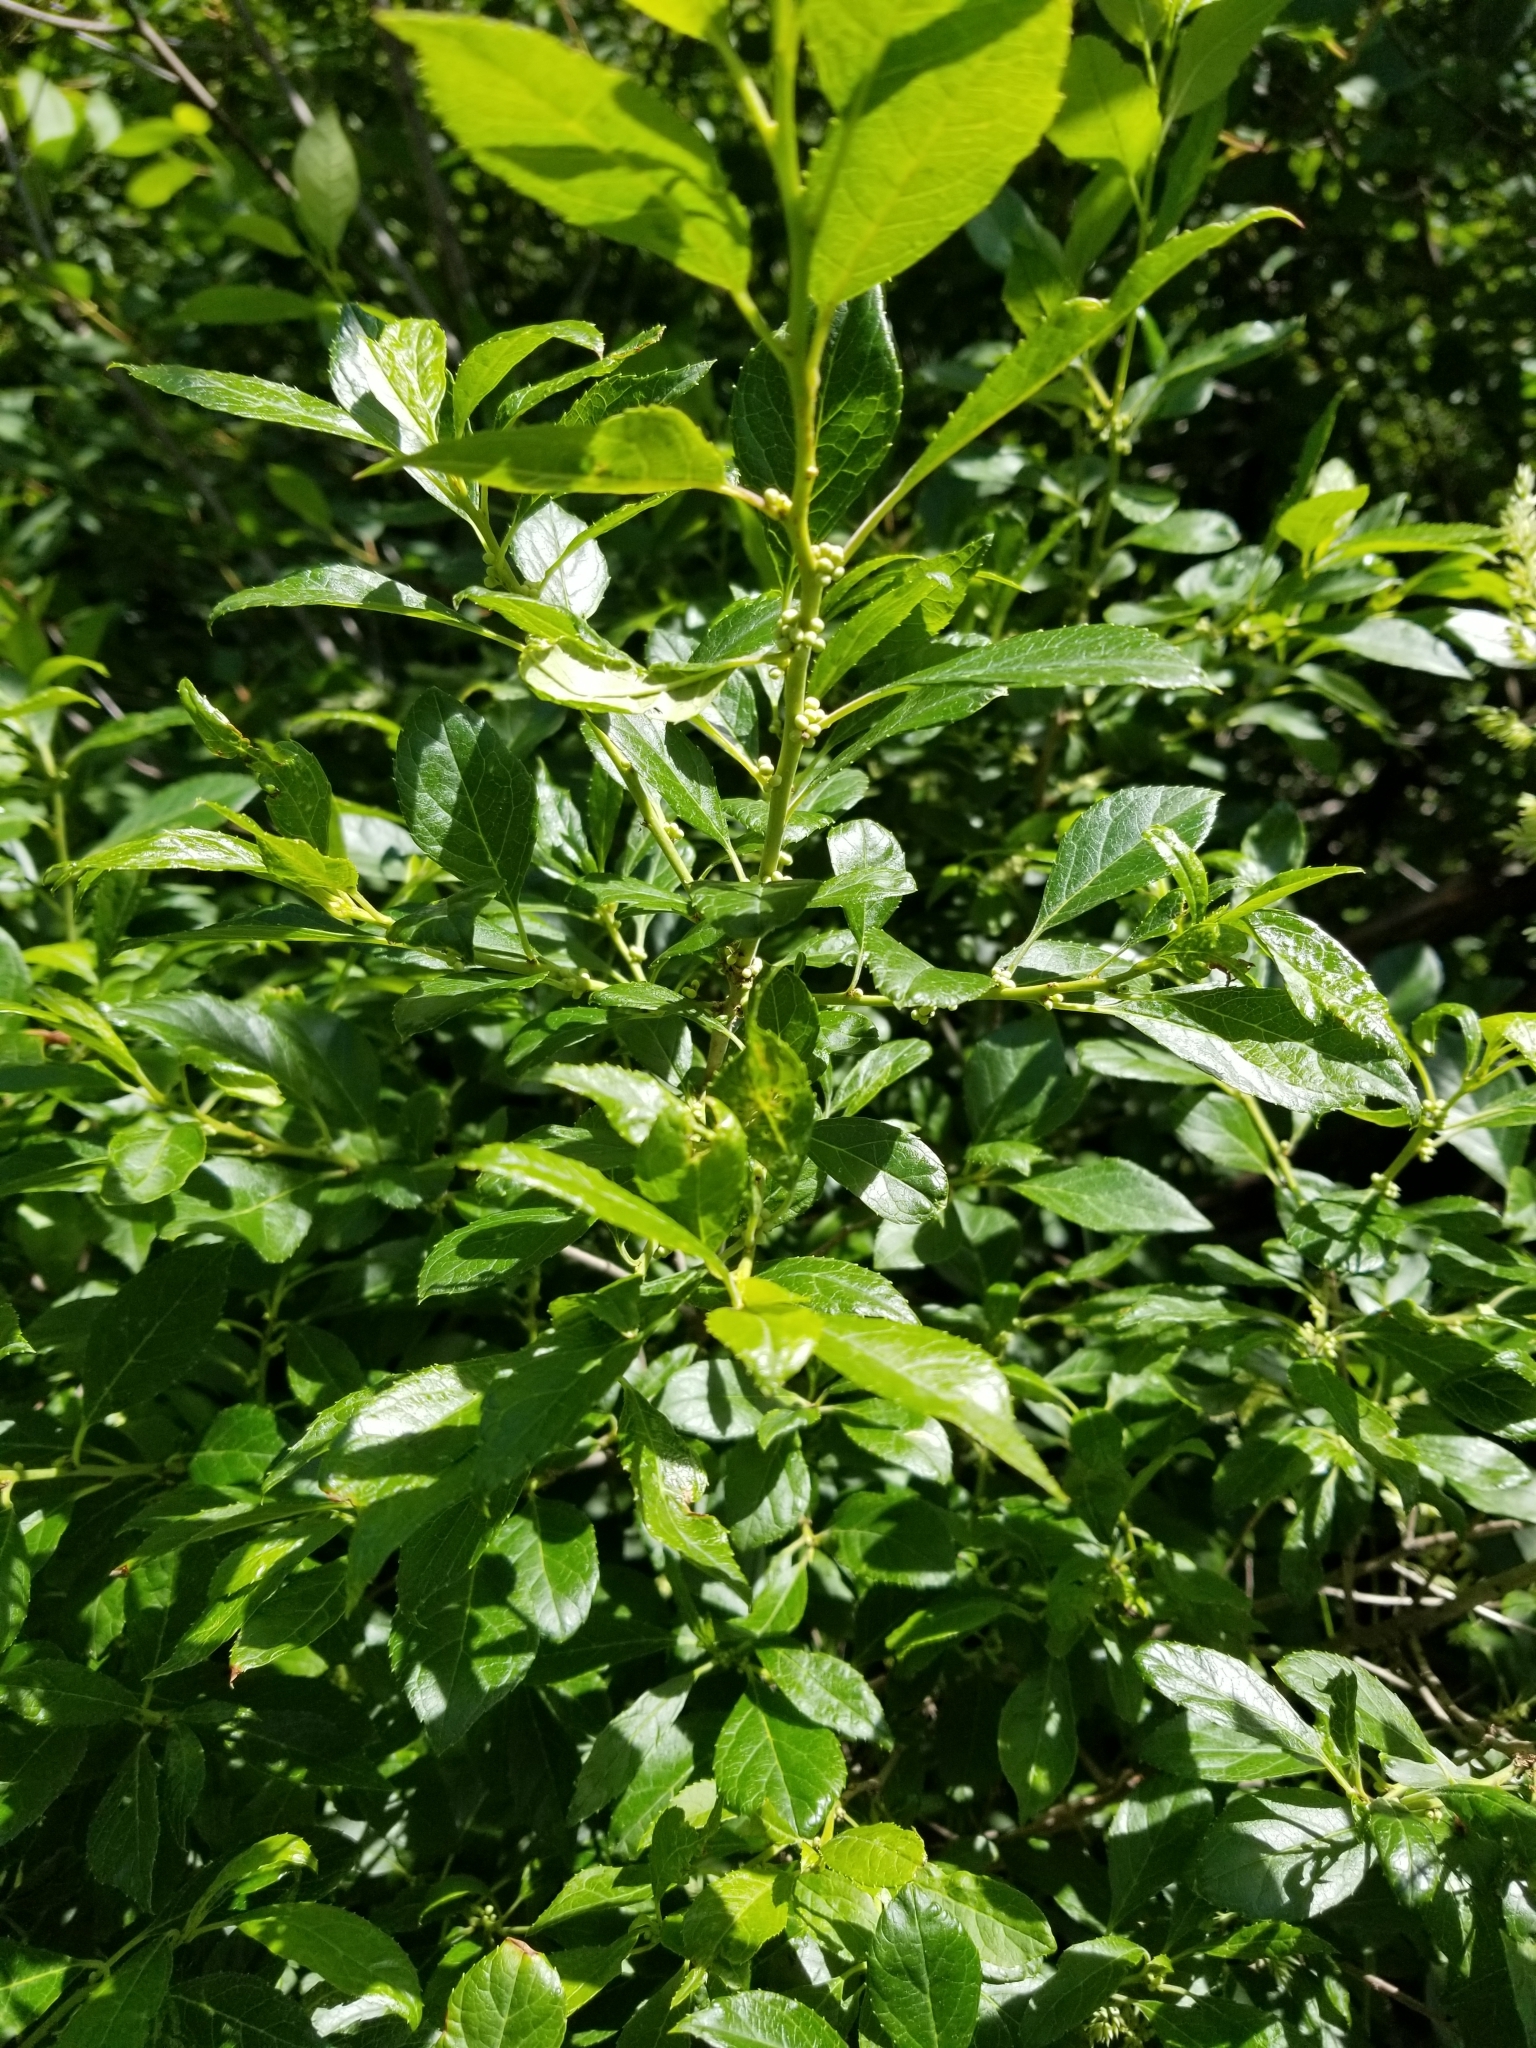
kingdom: Plantae
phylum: Tracheophyta
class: Magnoliopsida
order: Aquifoliales
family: Aquifoliaceae
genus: Ilex
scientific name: Ilex verticillata
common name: Virginia winterberry
